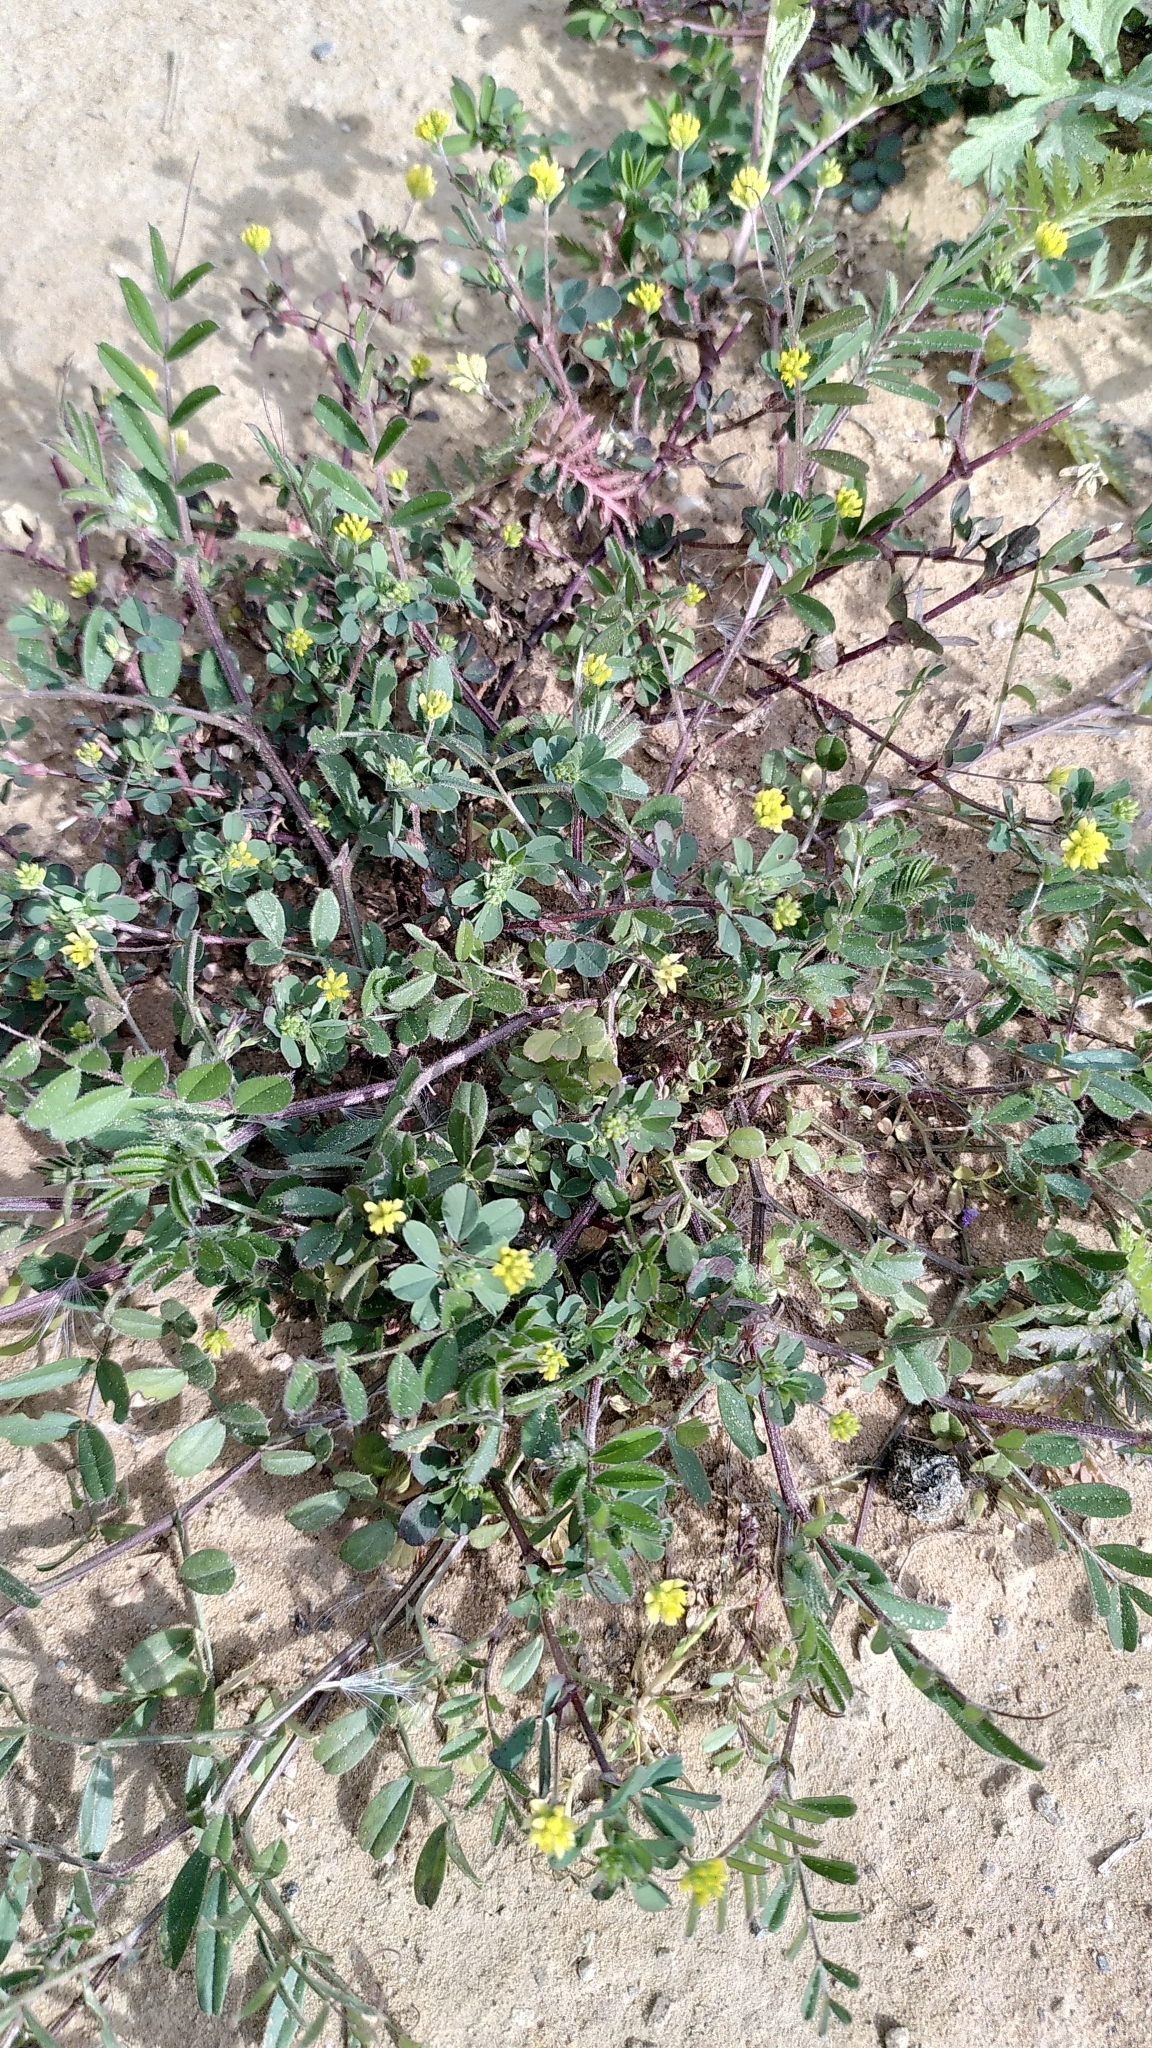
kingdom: Plantae
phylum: Tracheophyta
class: Magnoliopsida
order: Fabales
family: Fabaceae
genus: Medicago
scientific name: Medicago lupulina
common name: Black medick
